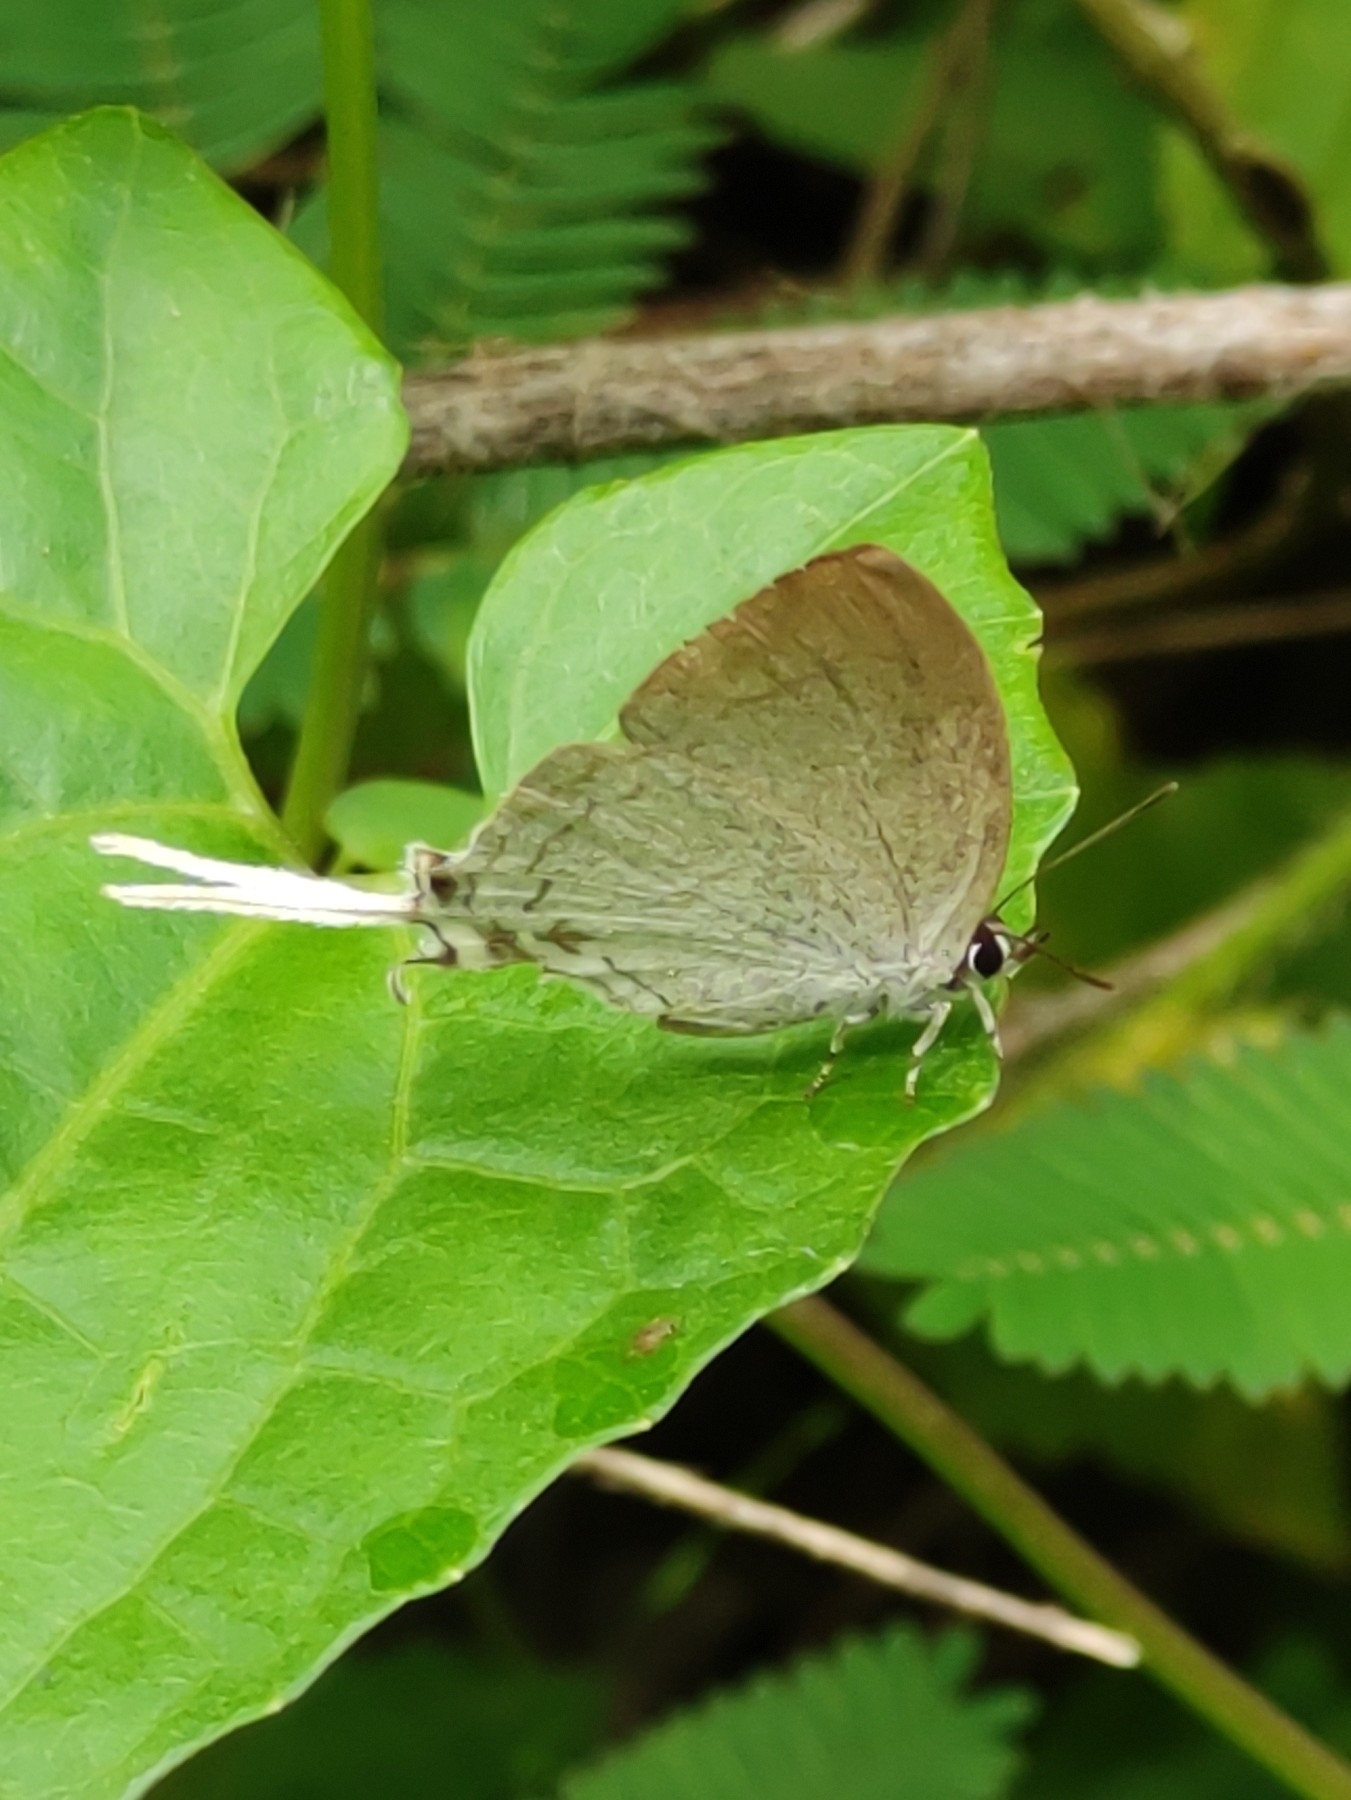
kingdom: Animalia
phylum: Arthropoda
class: Insecta
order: Lepidoptera
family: Lycaenidae
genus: Cheritra
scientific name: Cheritra freja
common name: Common imperial
